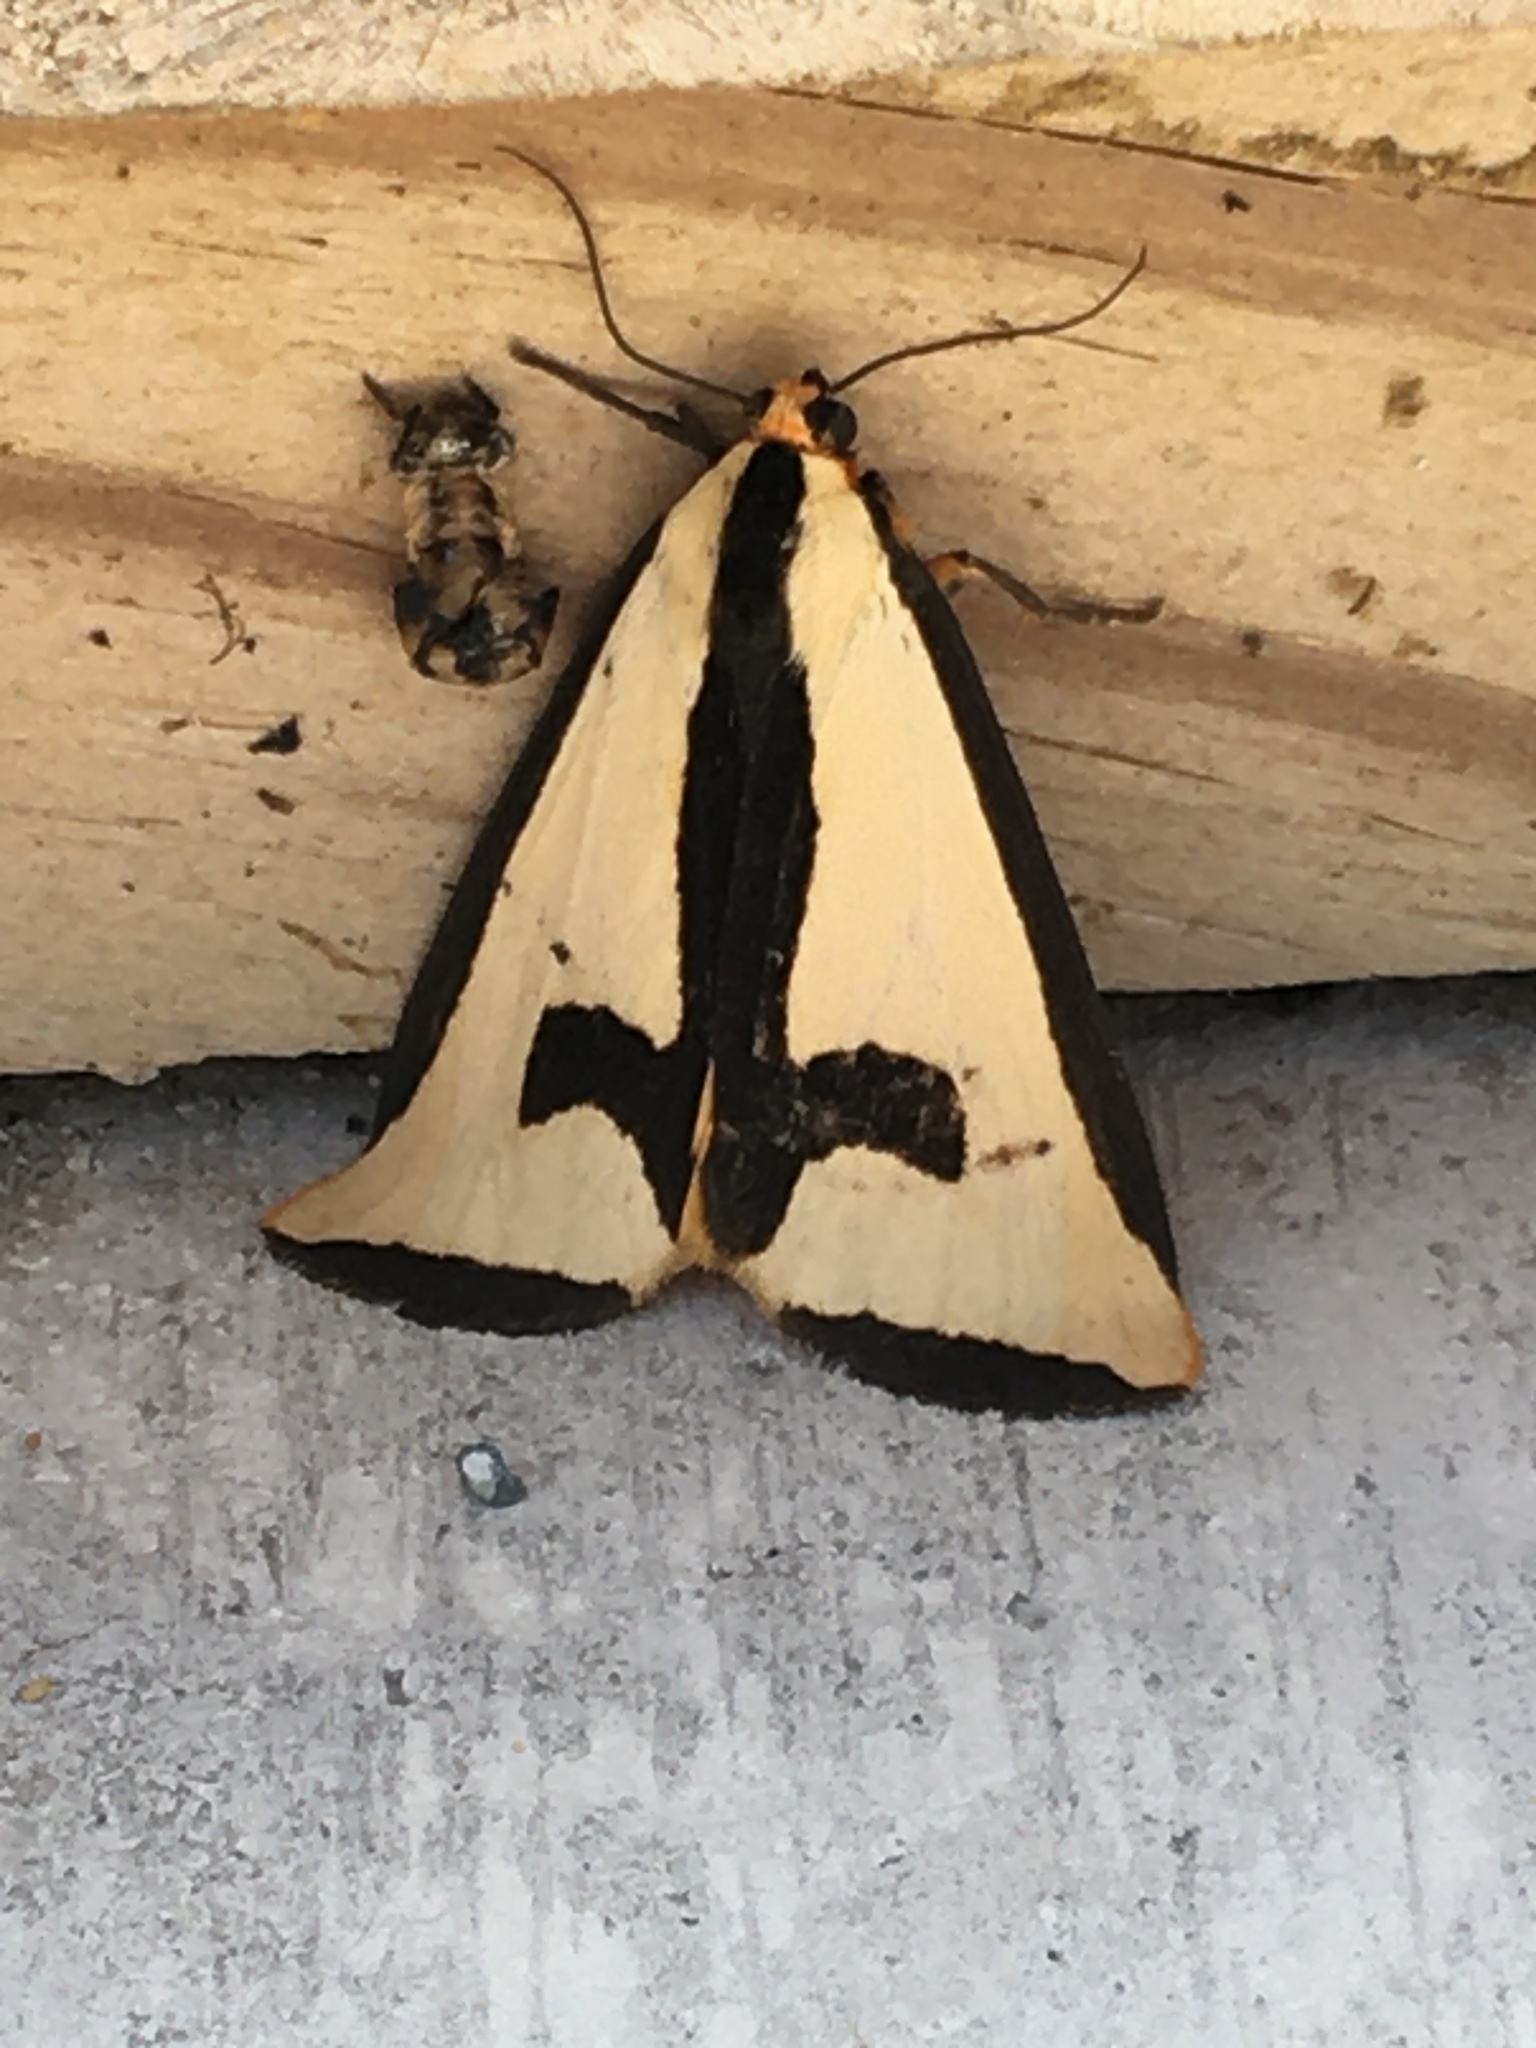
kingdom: Animalia
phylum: Arthropoda
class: Insecta
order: Lepidoptera
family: Erebidae
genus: Haploa
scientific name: Haploa clymene
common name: Clymene moth
